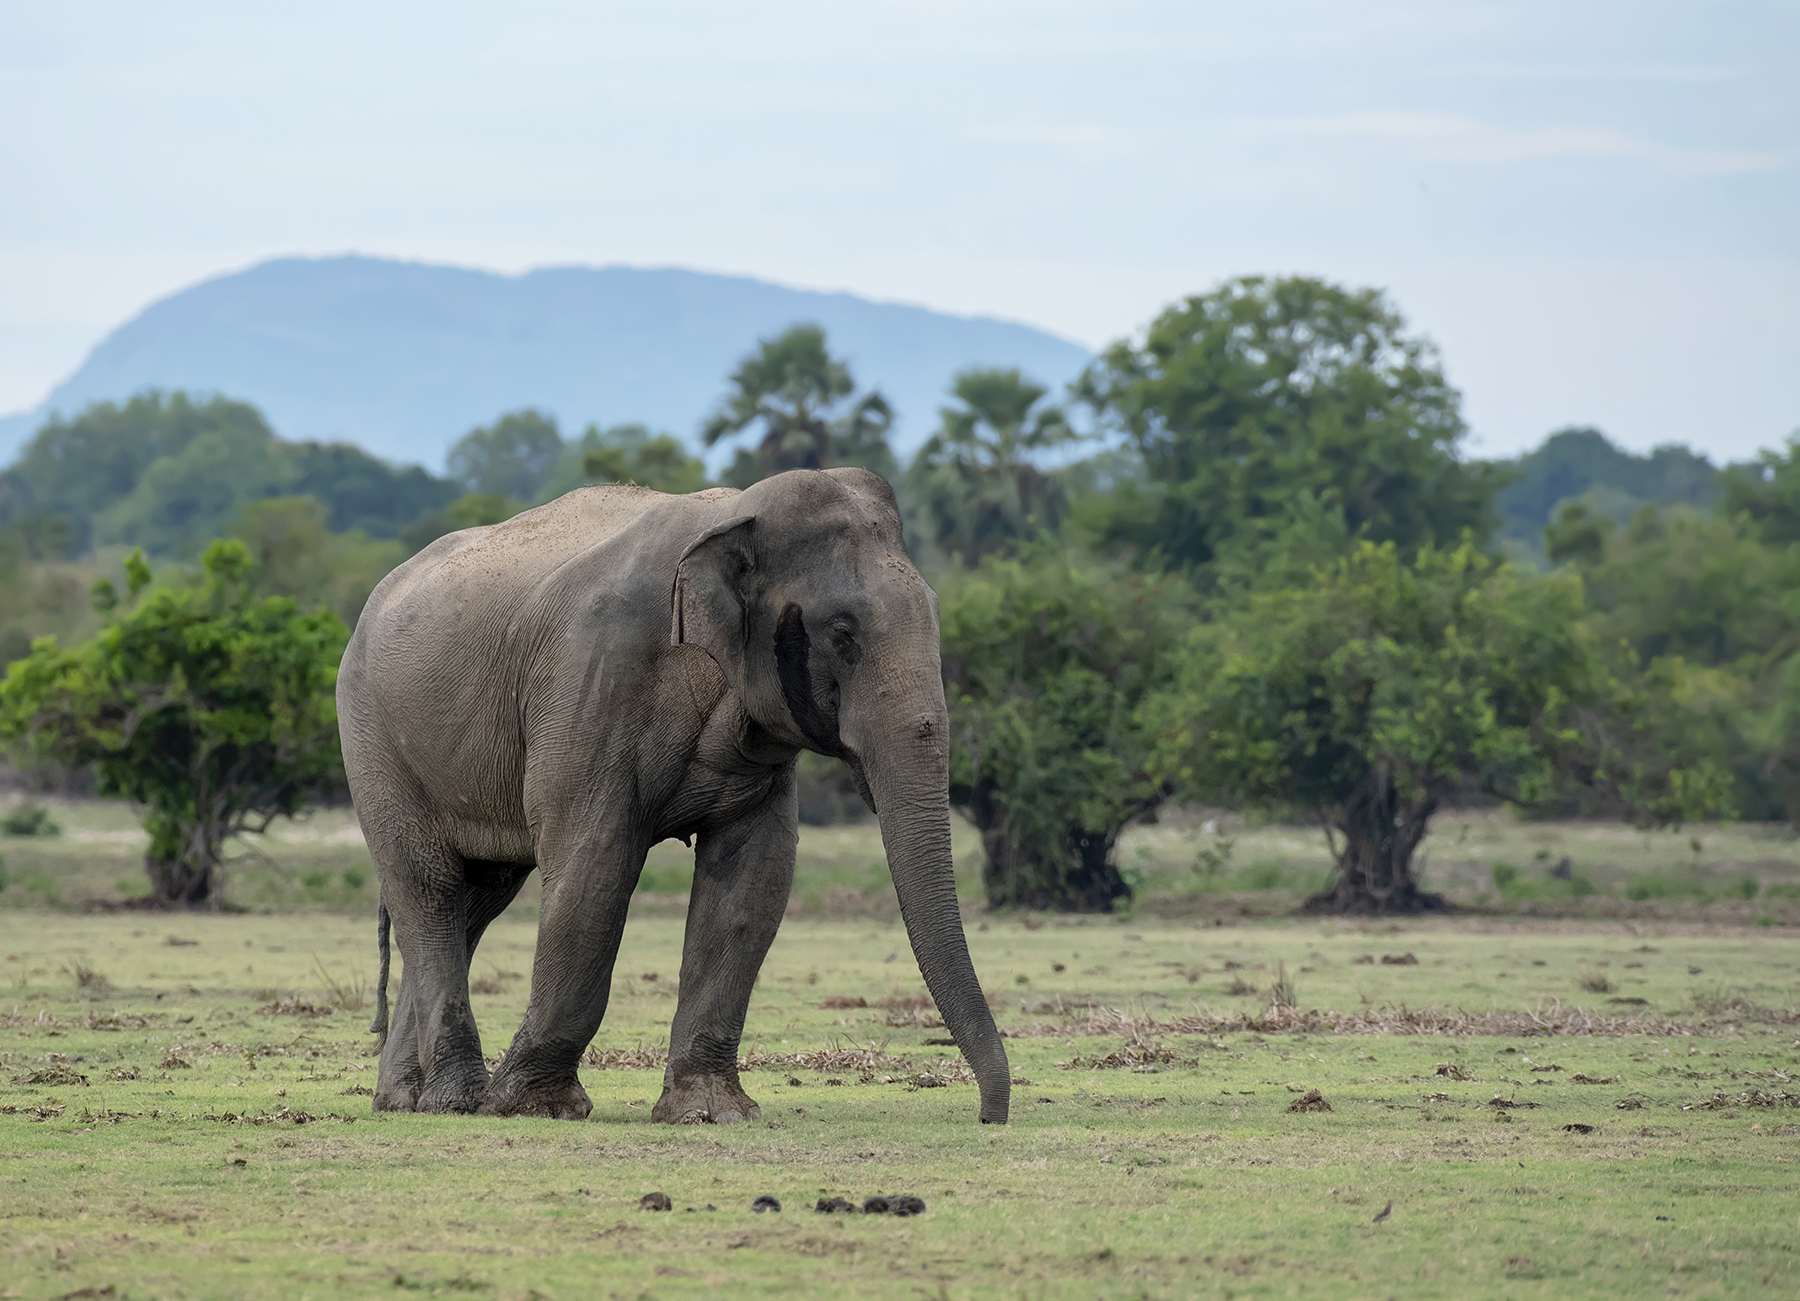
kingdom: Animalia
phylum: Chordata
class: Mammalia
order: Proboscidea
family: Elephantidae
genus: Elephas
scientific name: Elephas maximus
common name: Asian elephant
